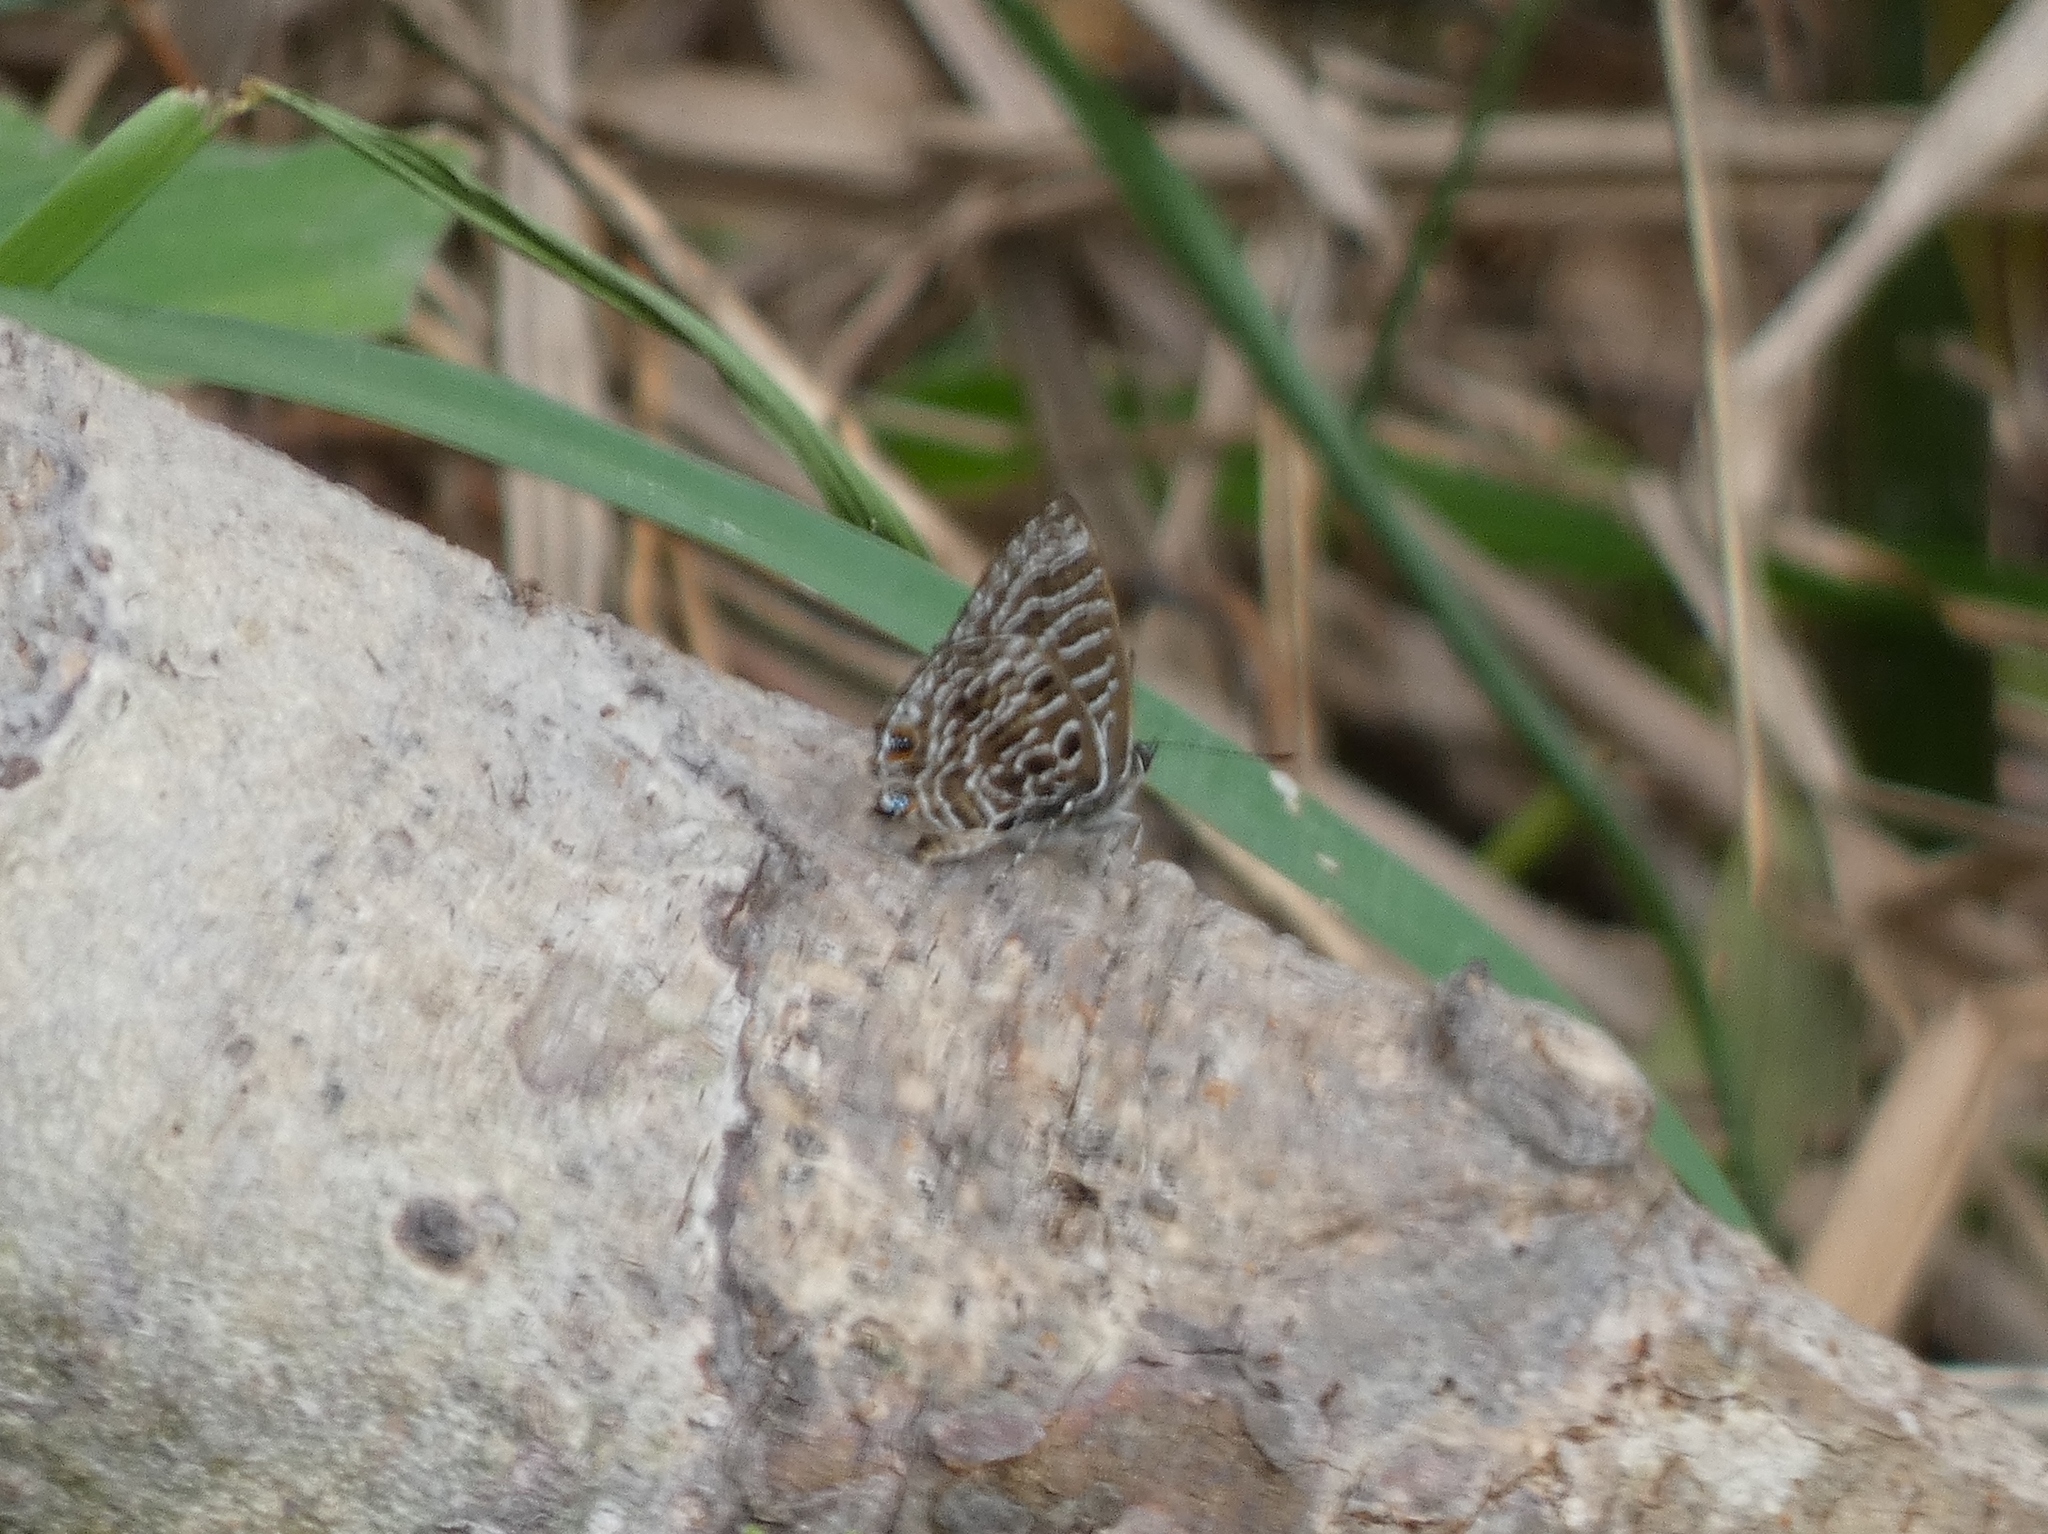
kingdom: Animalia
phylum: Arthropoda
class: Insecta
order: Lepidoptera
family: Lycaenidae
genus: Anthene
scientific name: Anthene larydas
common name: Forest hairtail
